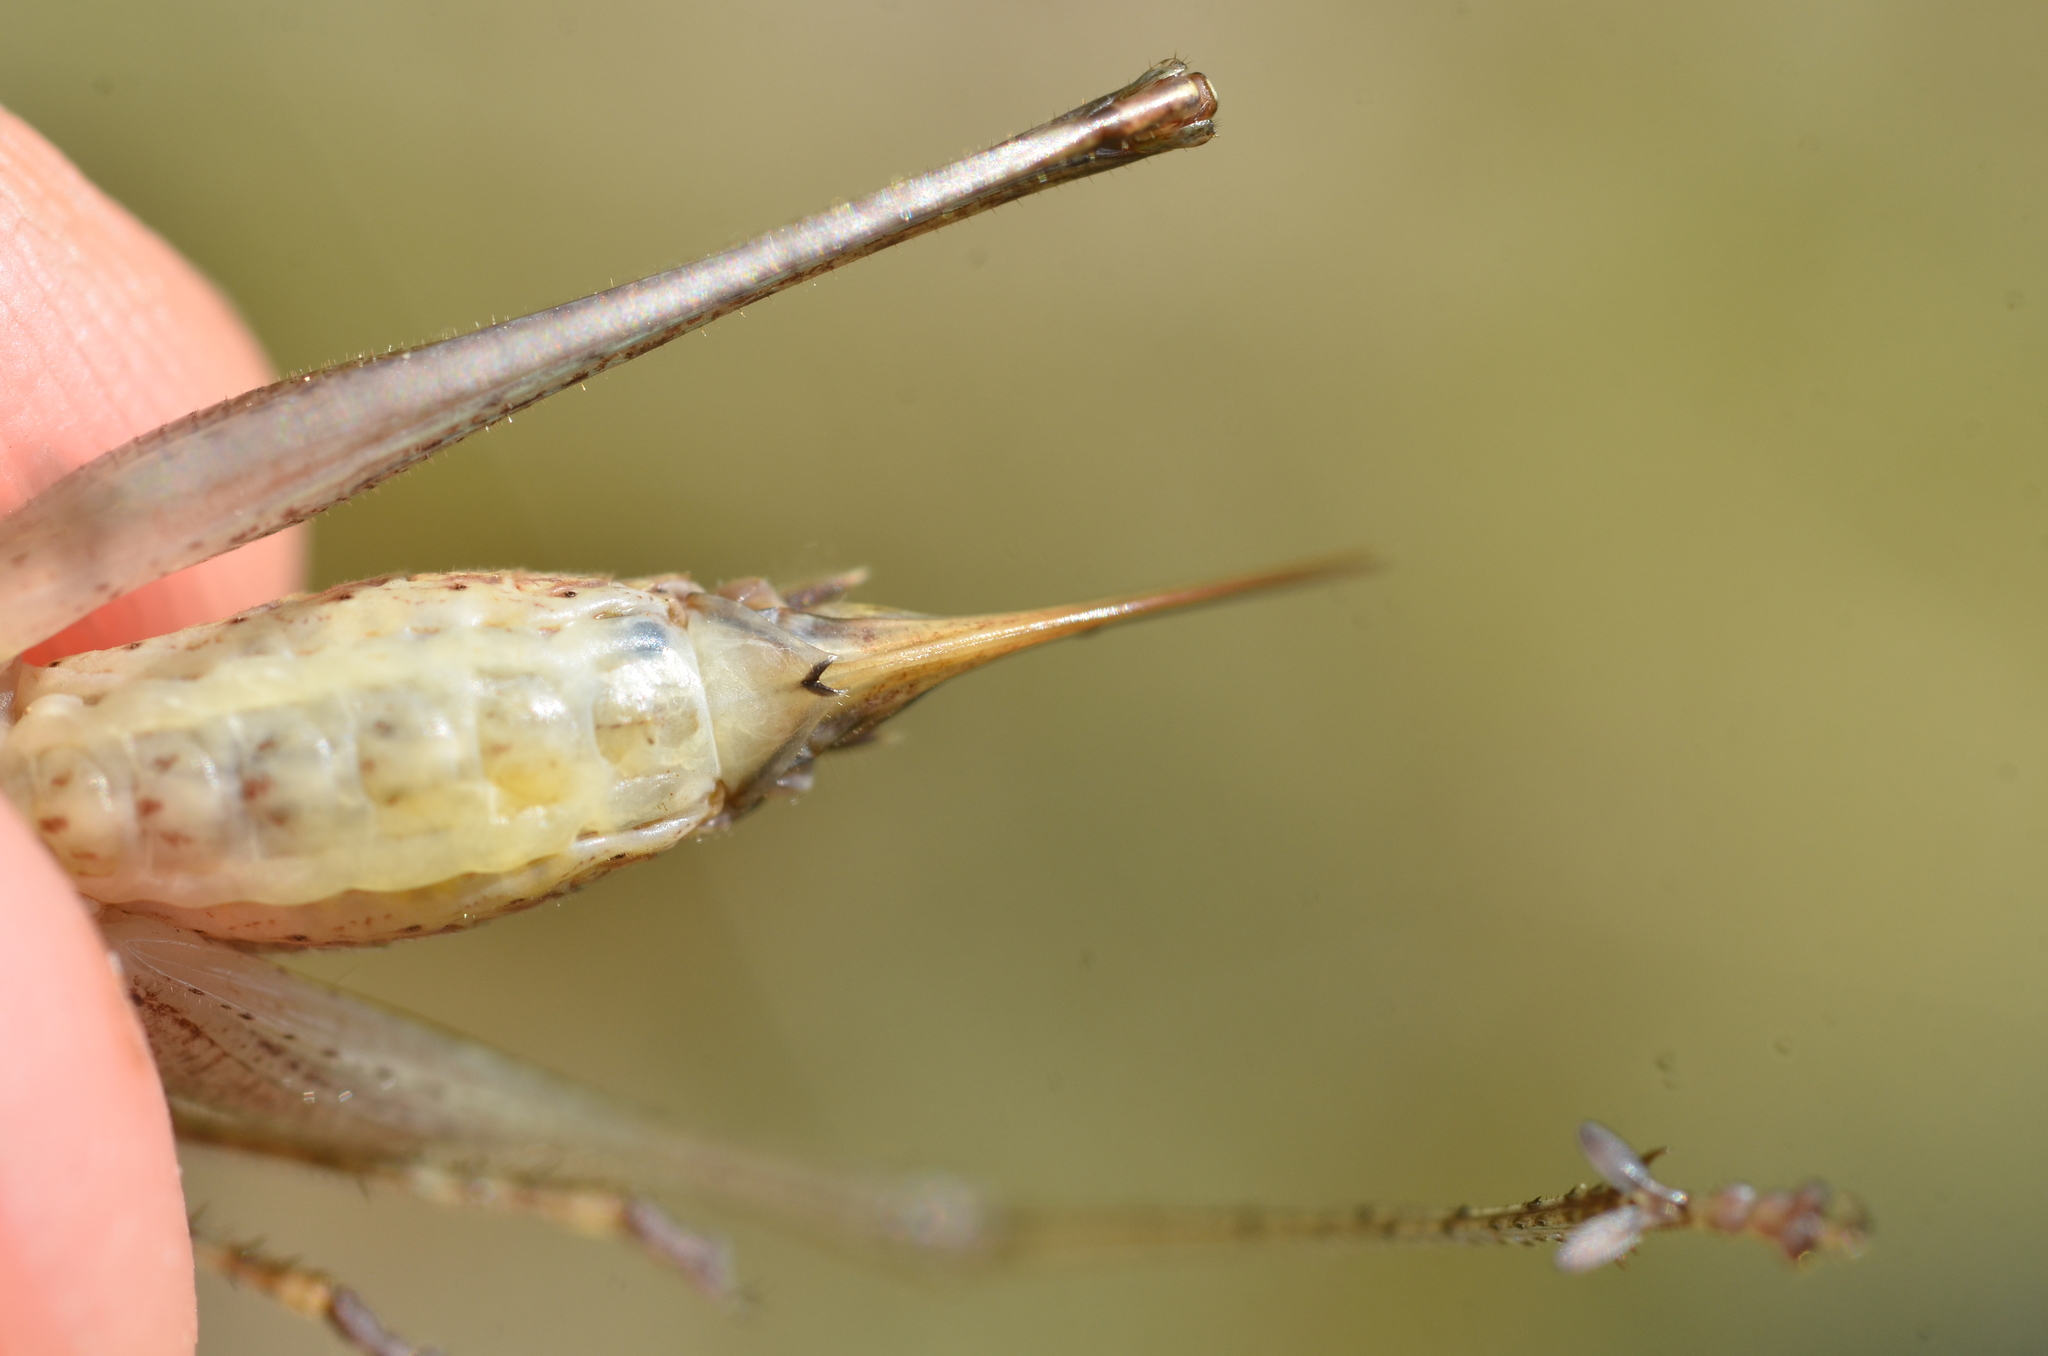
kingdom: Animalia
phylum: Arthropoda
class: Insecta
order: Orthoptera
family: Tettigoniidae
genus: Yersinella
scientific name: Yersinella raymondii
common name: Raymond's bush-cricket
